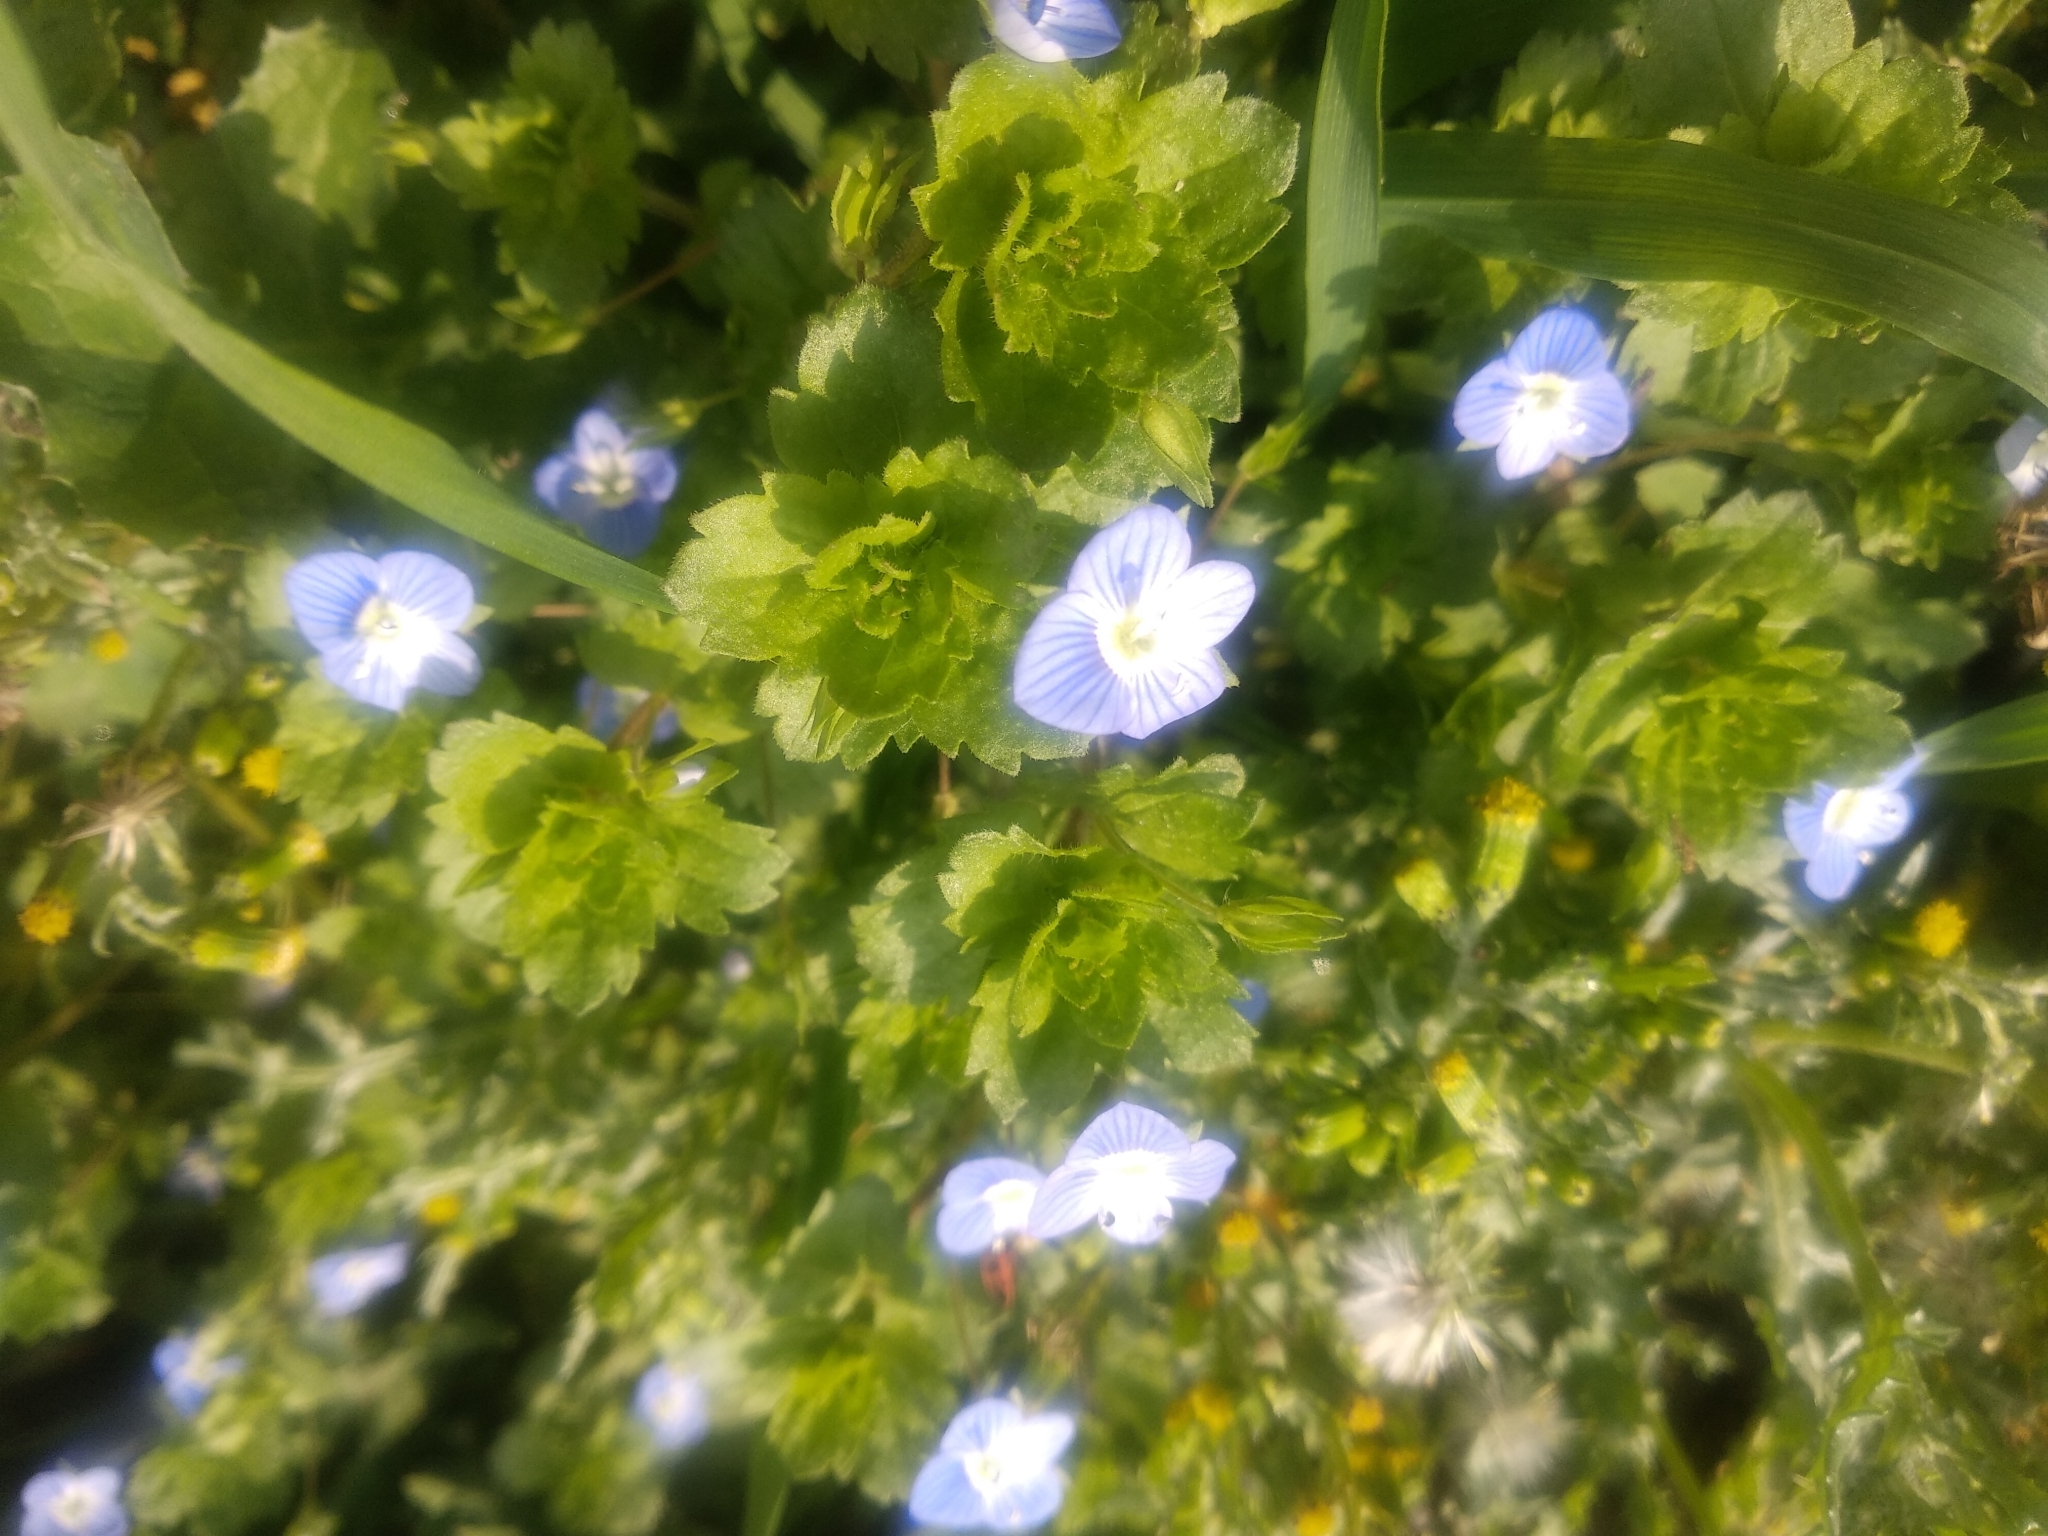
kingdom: Plantae
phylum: Tracheophyta
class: Magnoliopsida
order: Lamiales
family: Plantaginaceae
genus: Veronica
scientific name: Veronica persica
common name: Common field-speedwell
